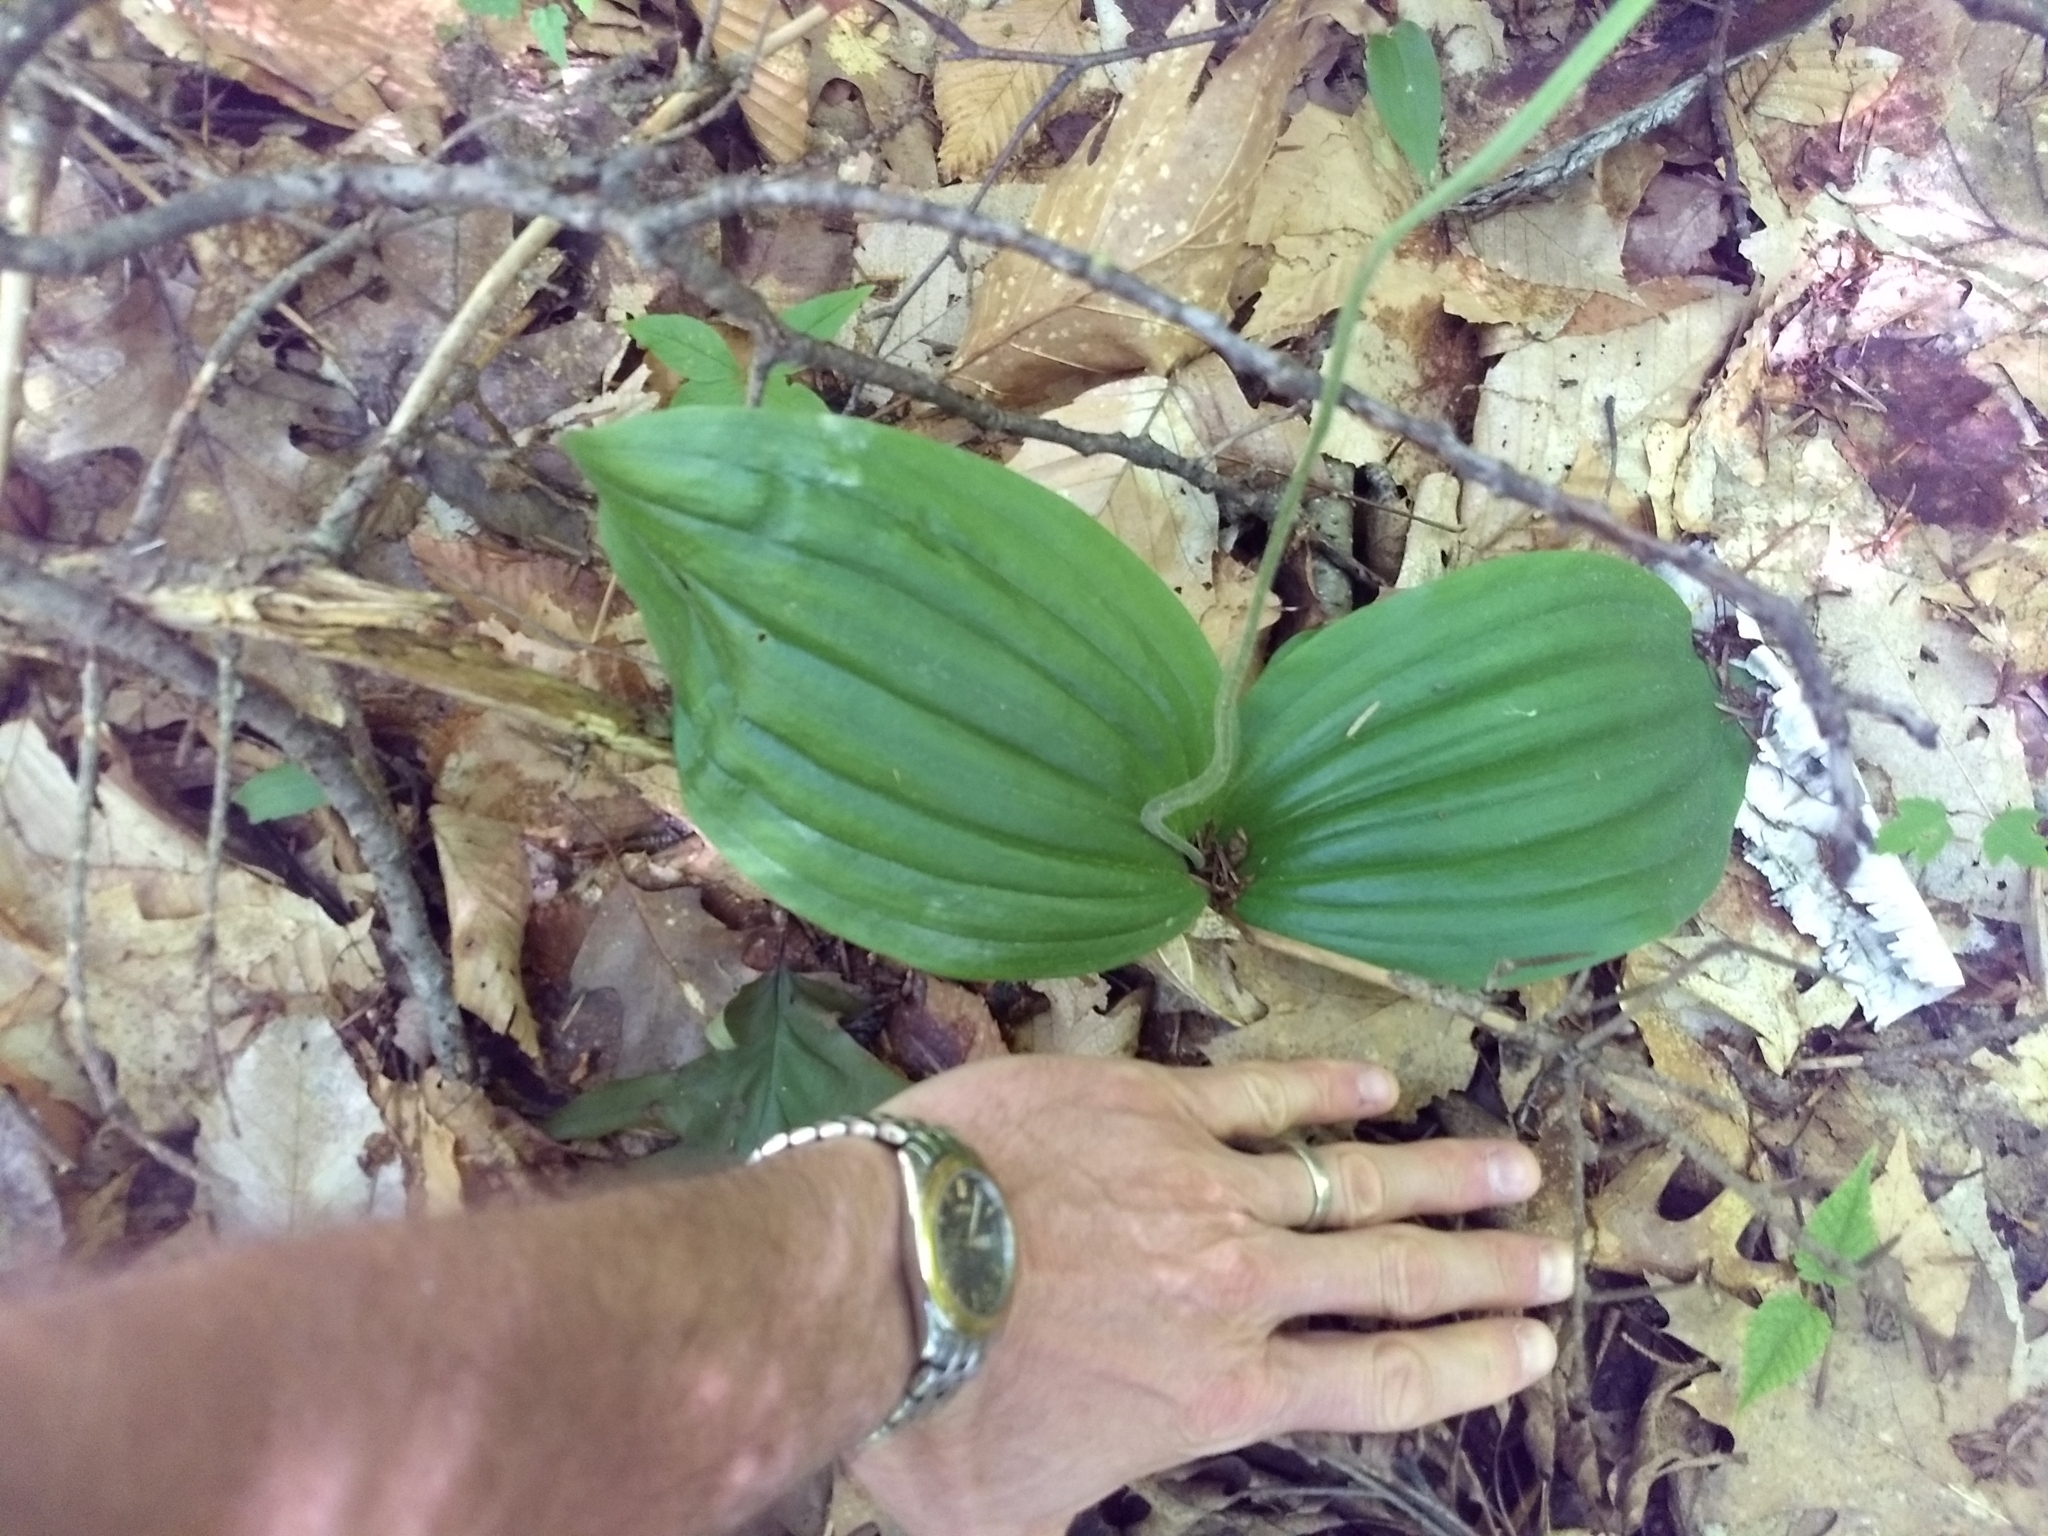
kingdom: Plantae
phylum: Tracheophyta
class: Liliopsida
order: Asparagales
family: Orchidaceae
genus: Cypripedium
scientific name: Cypripedium acaule
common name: Pink lady's-slipper
